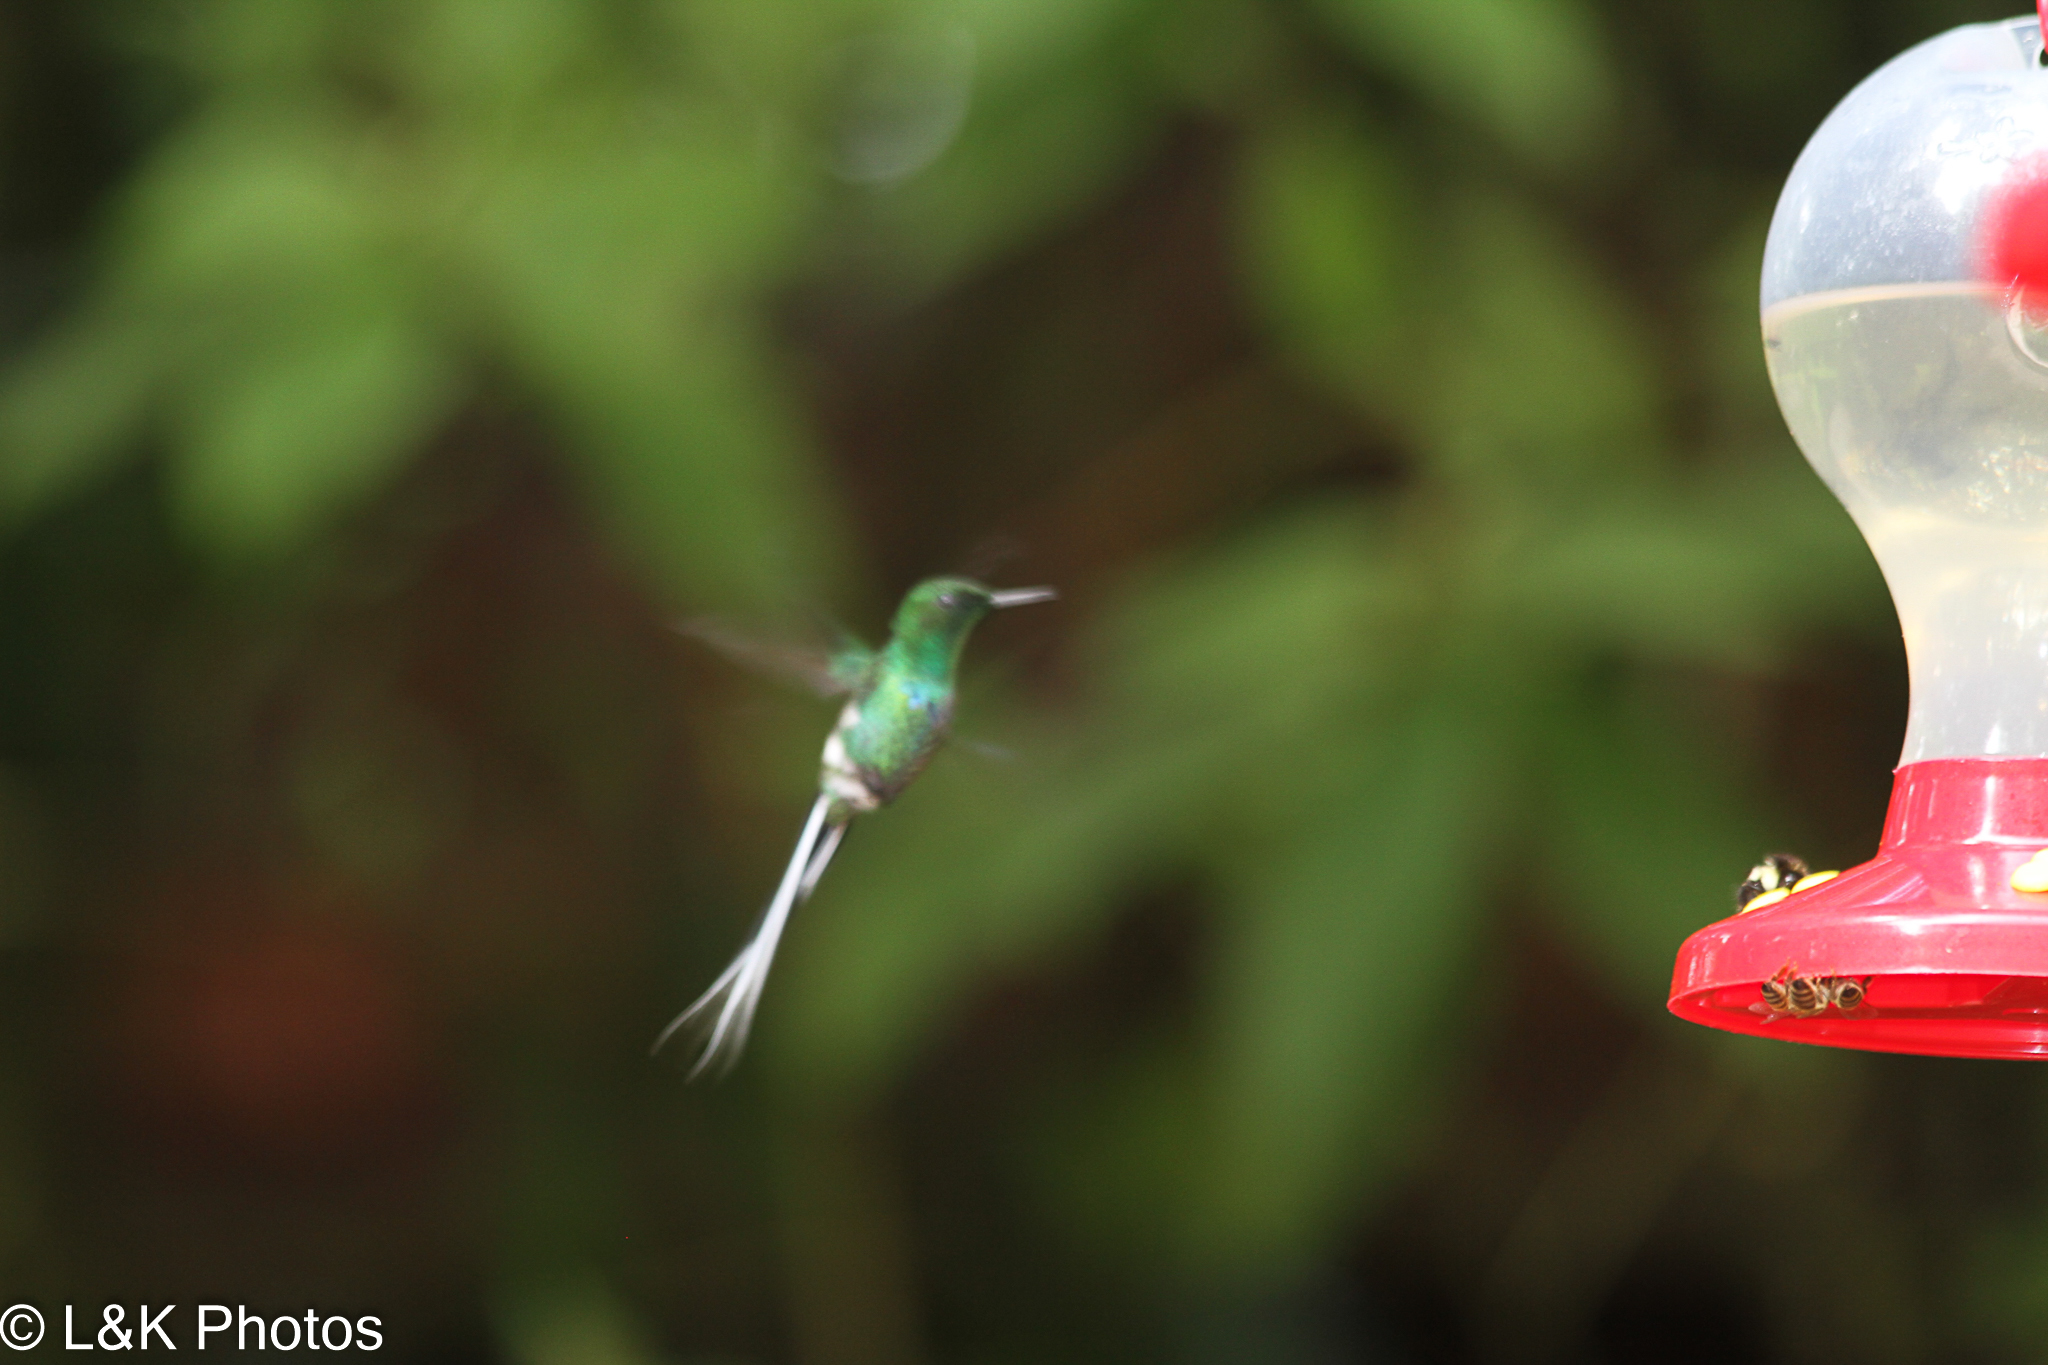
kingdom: Animalia
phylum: Chordata
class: Aves
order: Apodiformes
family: Trochilidae
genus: Discosura
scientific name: Discosura conversii
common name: Green thorntail
